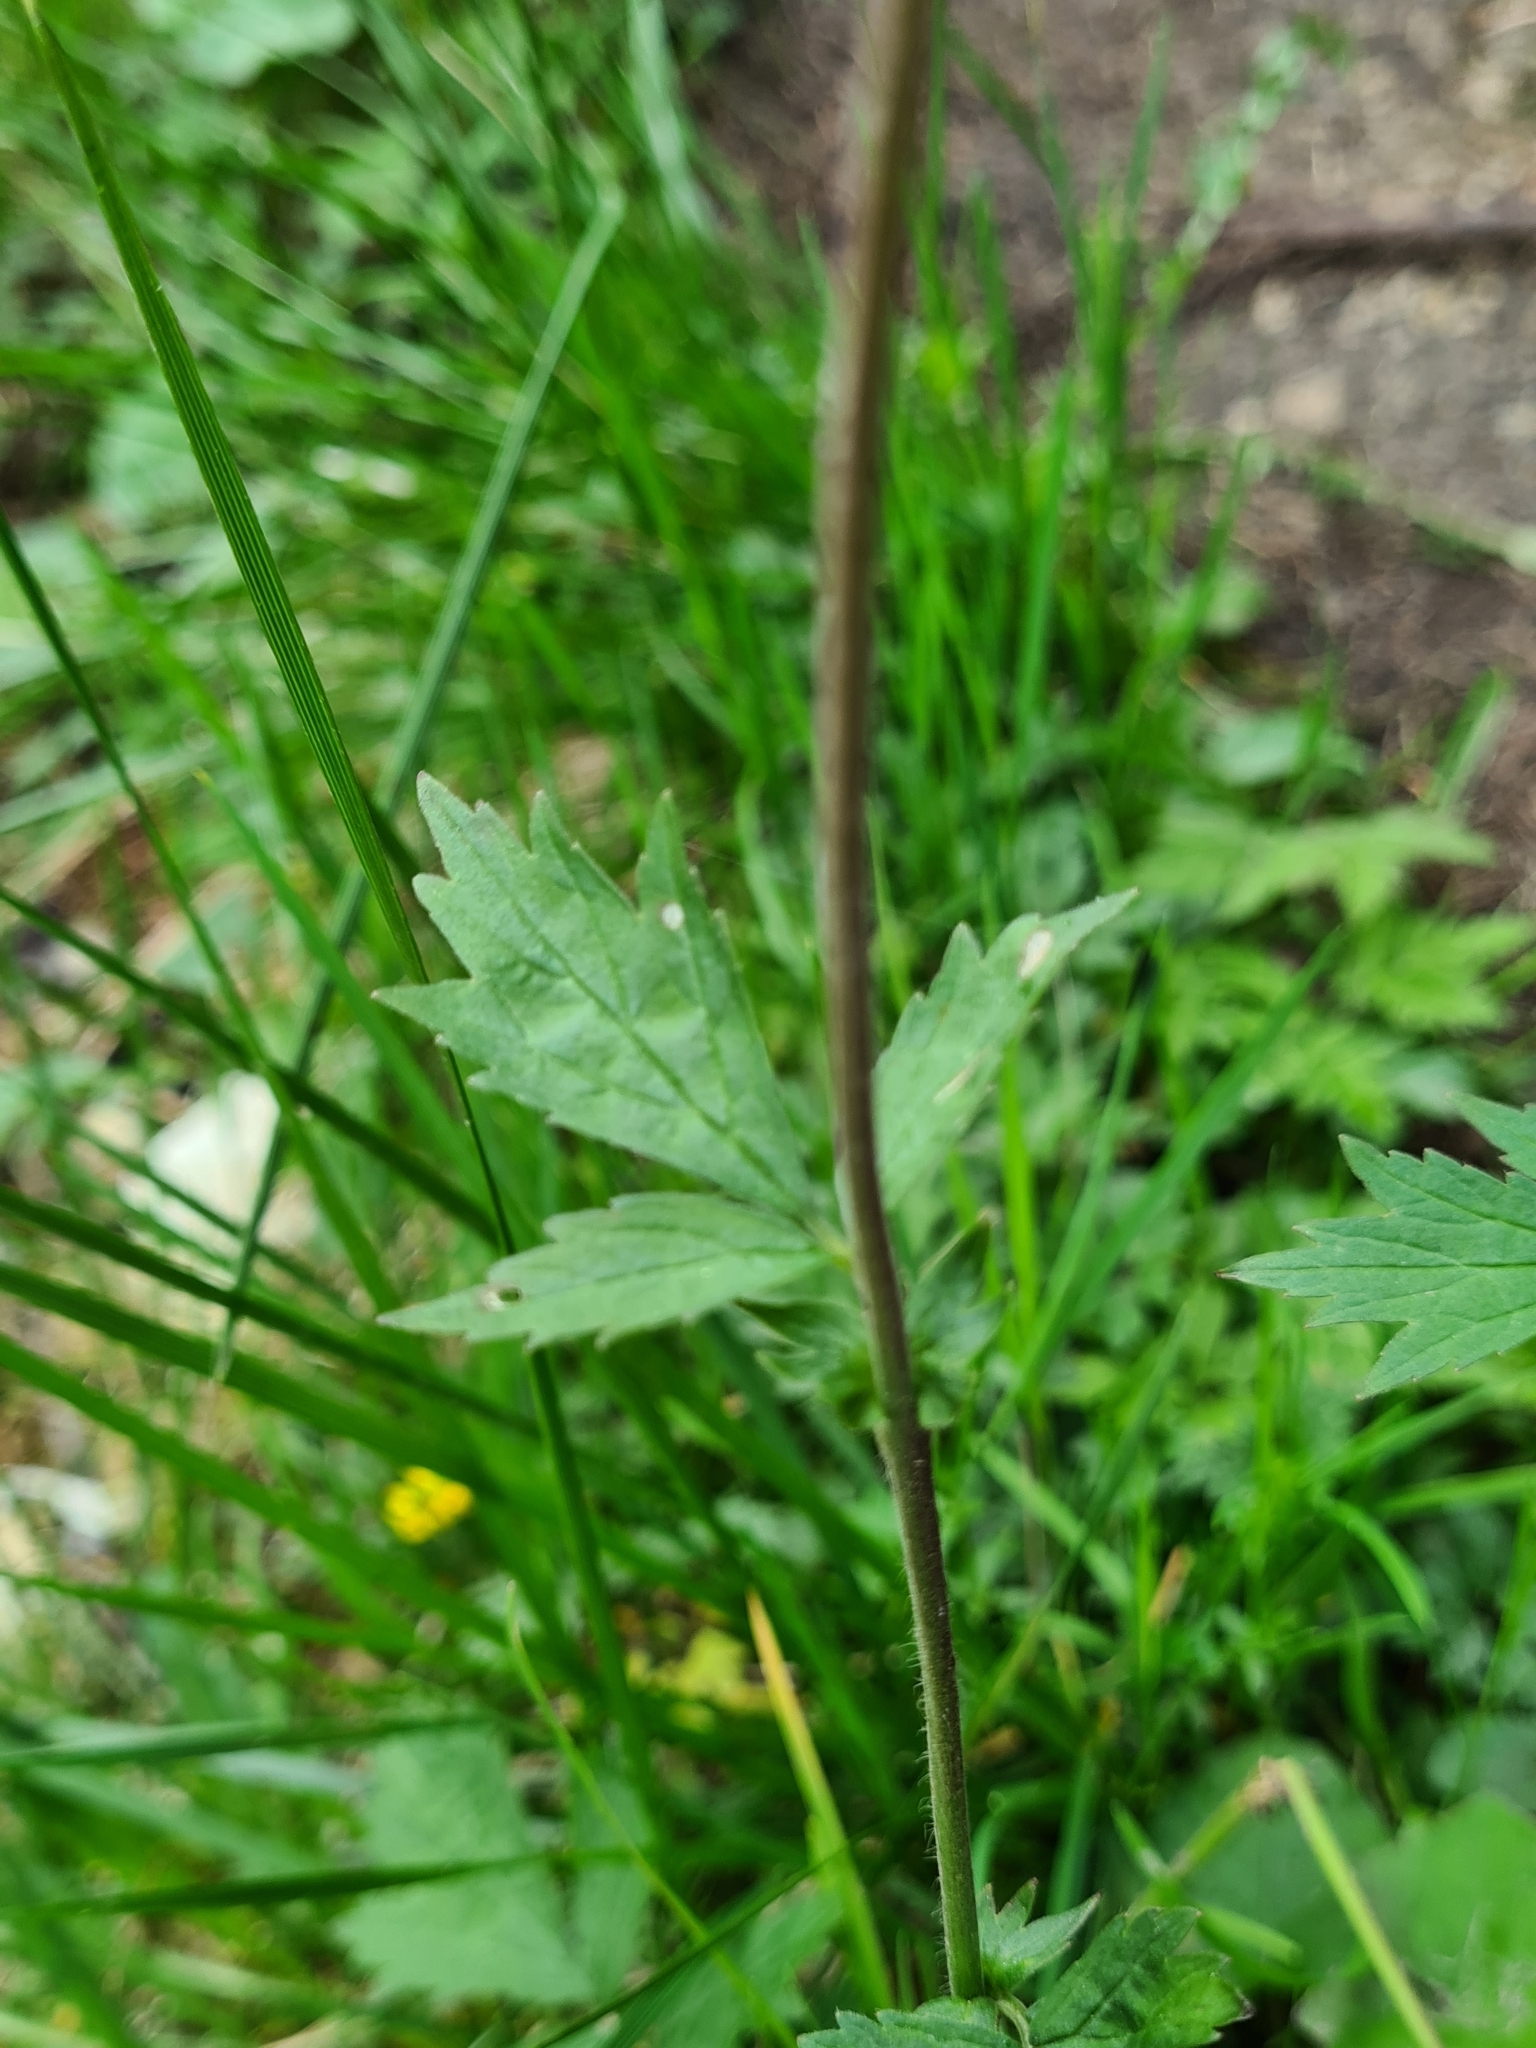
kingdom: Plantae
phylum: Tracheophyta
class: Magnoliopsida
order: Rosales
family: Rosaceae
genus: Geum
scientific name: Geum rivale
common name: Water avens
